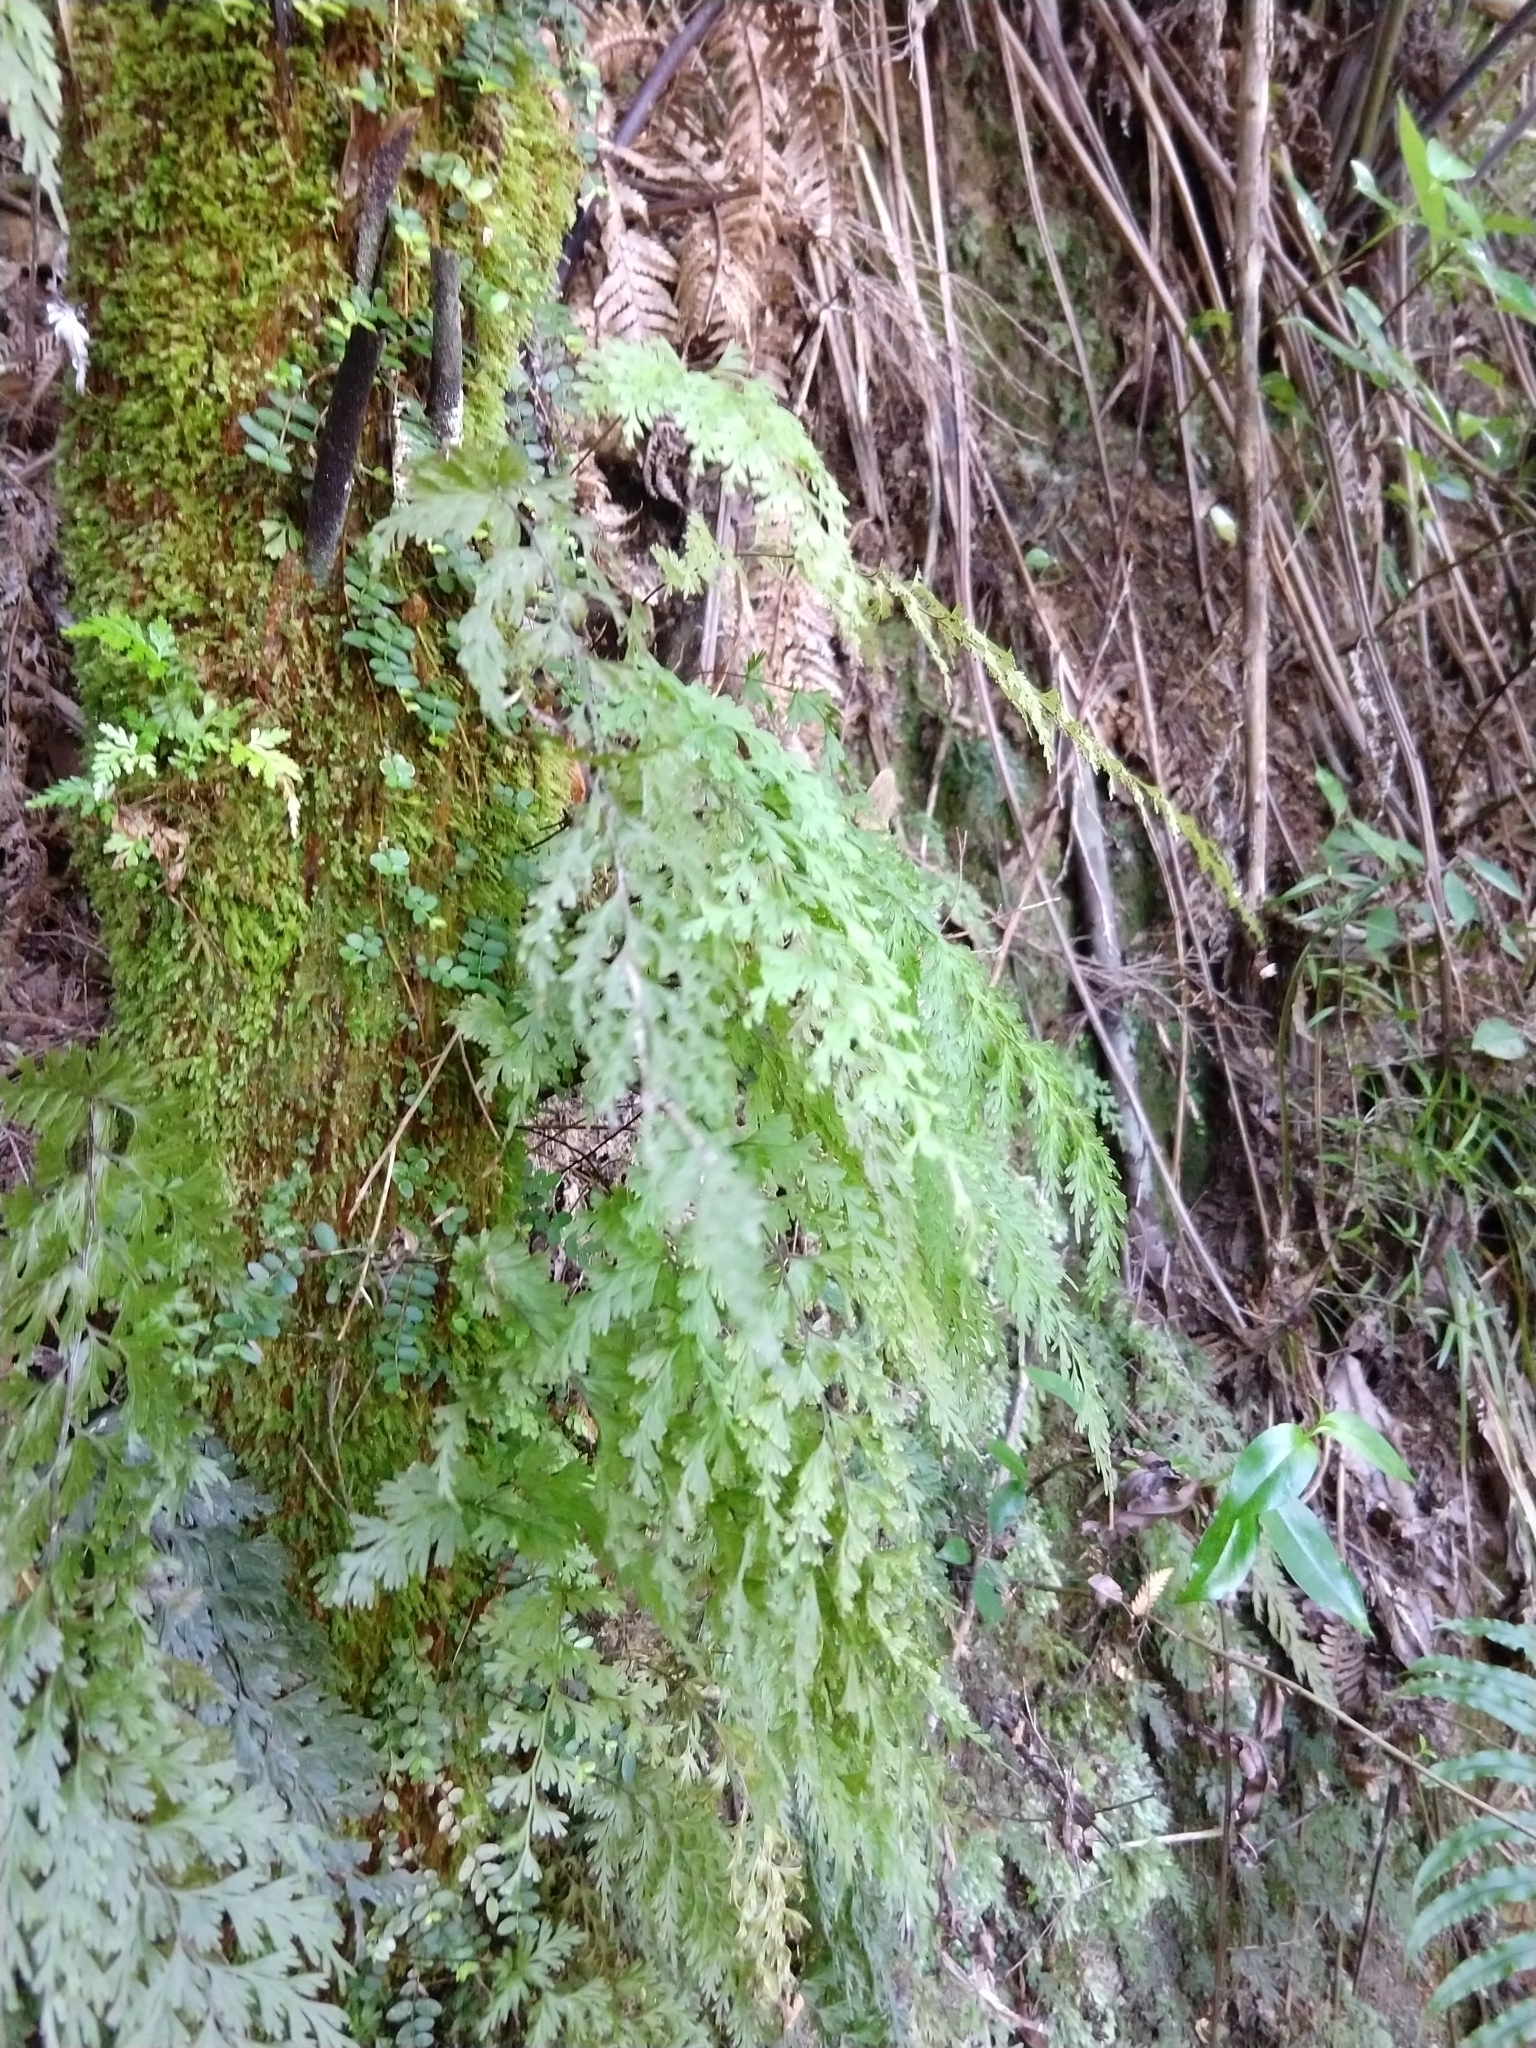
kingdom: Plantae
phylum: Tracheophyta
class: Polypodiopsida
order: Hymenophyllales
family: Hymenophyllaceae
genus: Hymenophyllum
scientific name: Hymenophyllum demissum
